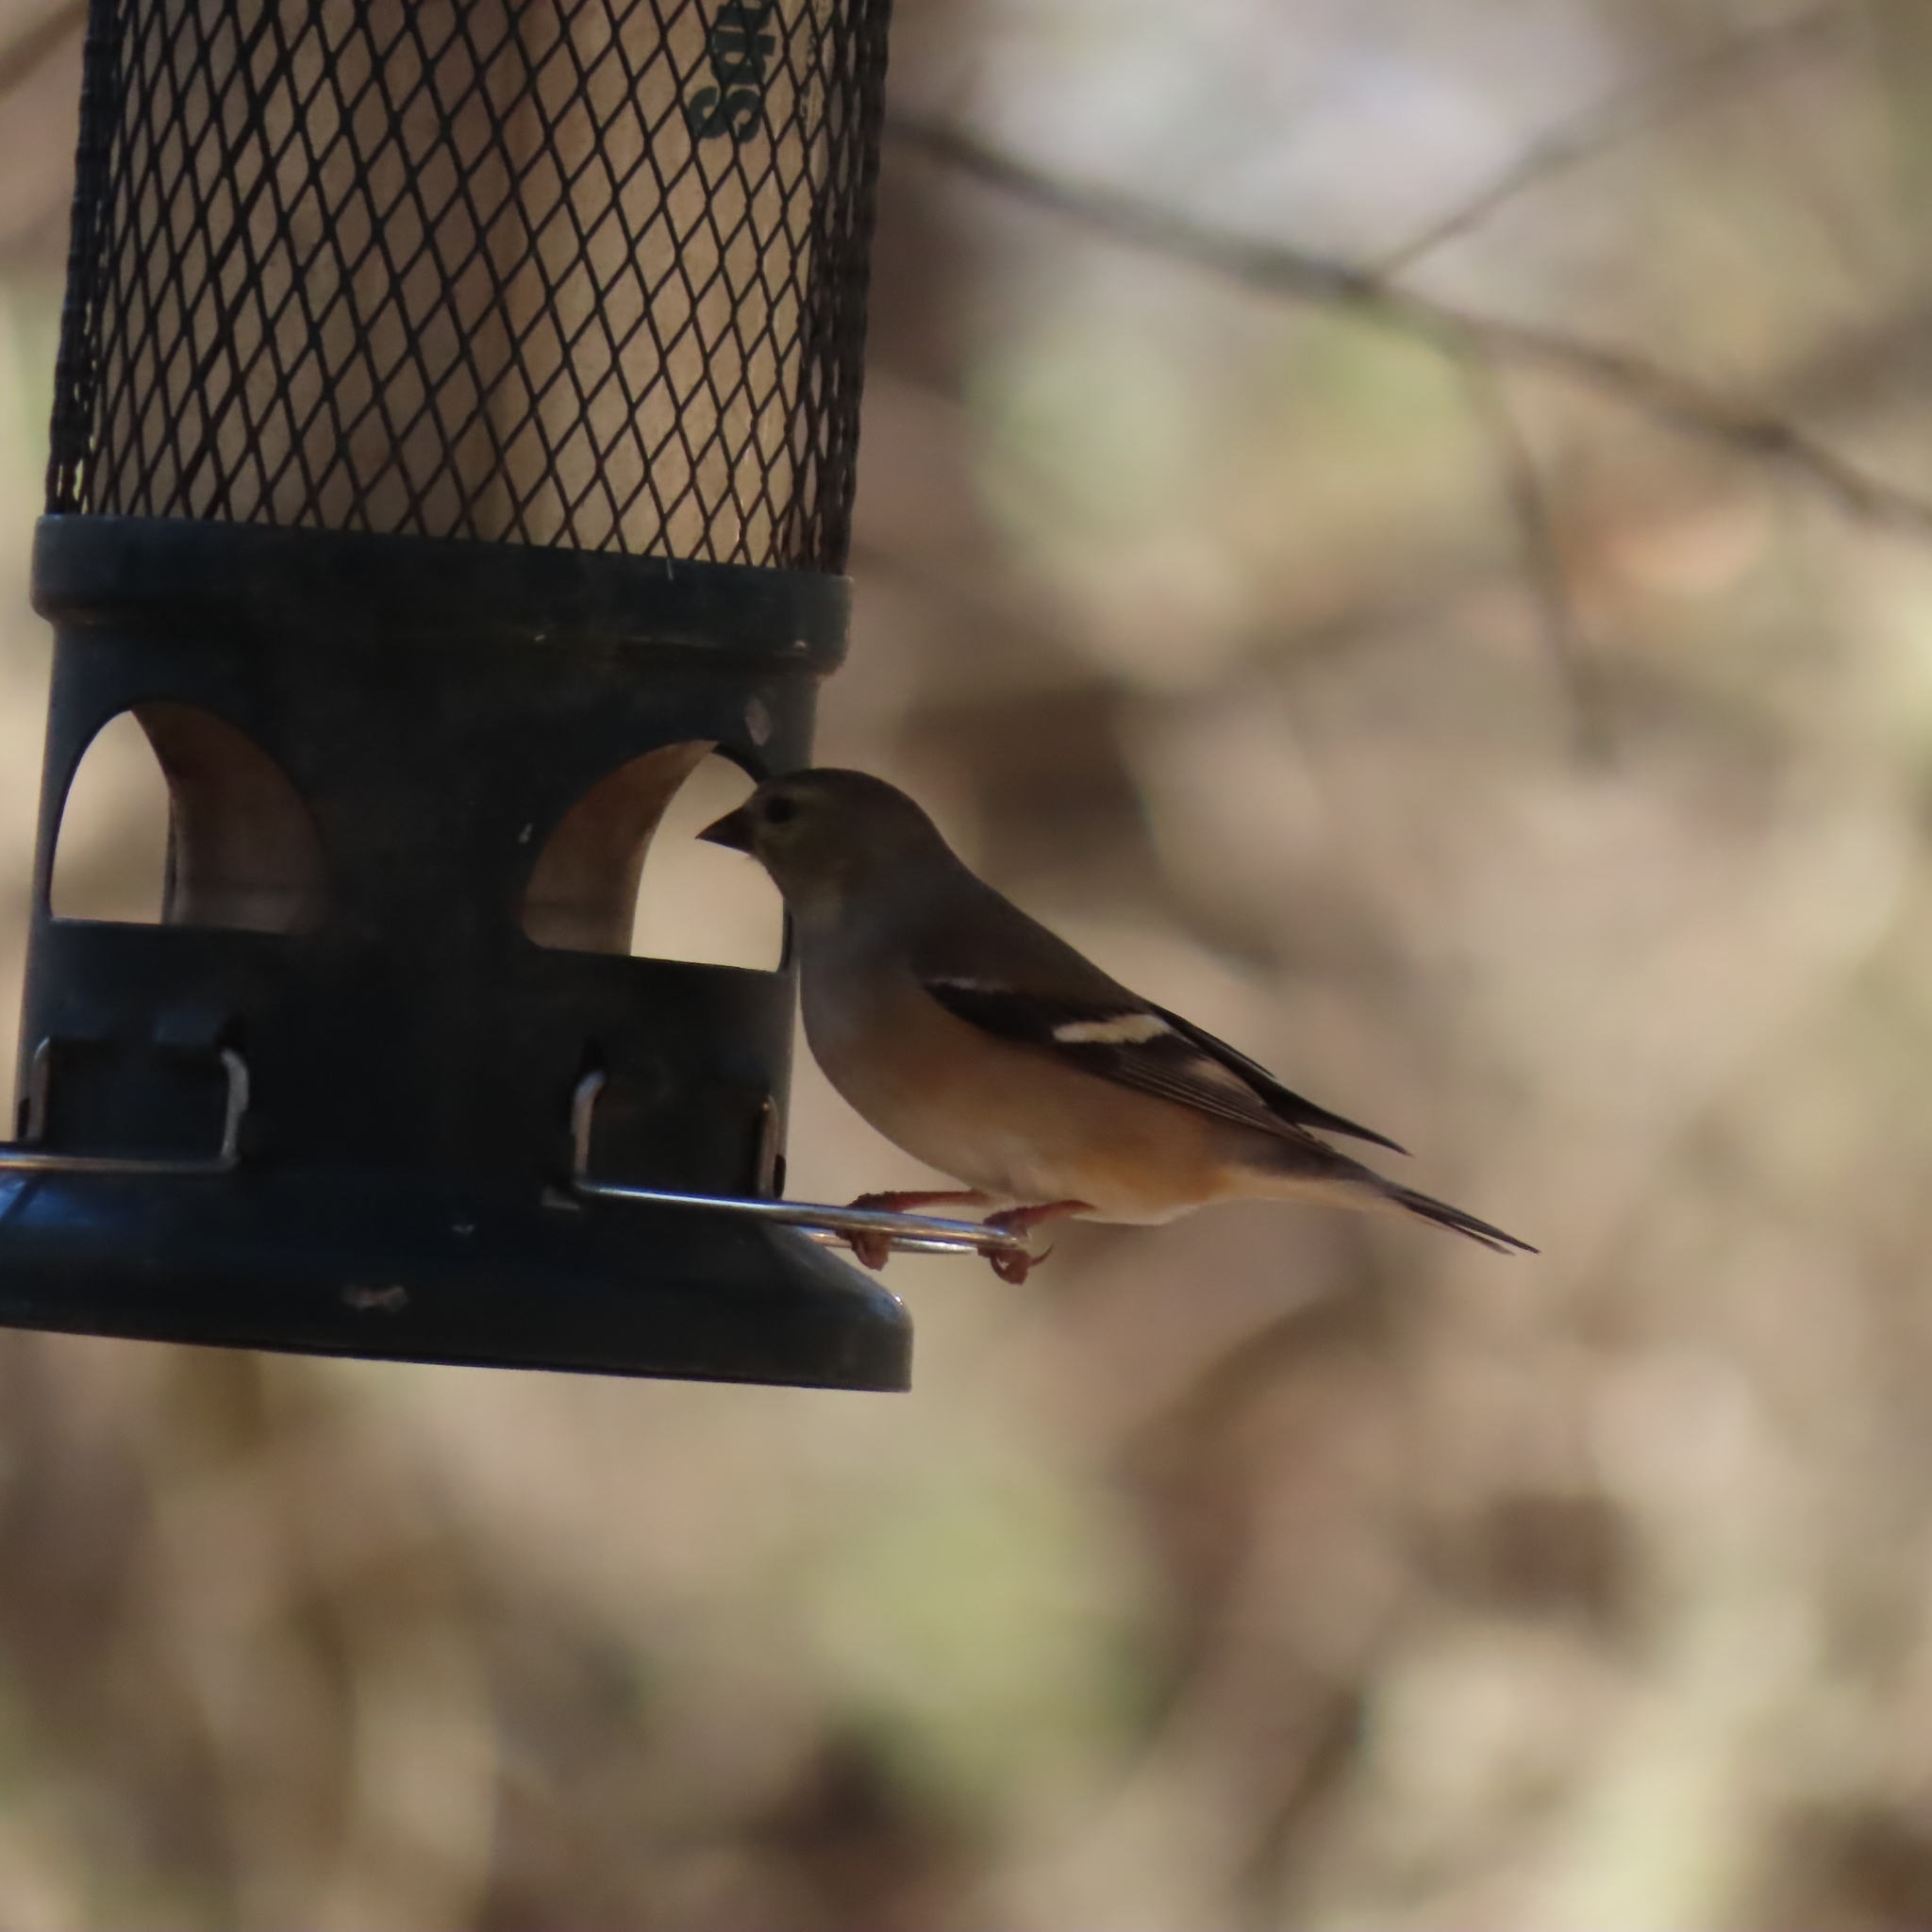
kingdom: Animalia
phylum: Chordata
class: Aves
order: Passeriformes
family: Fringillidae
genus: Spinus
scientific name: Spinus tristis
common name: American goldfinch
